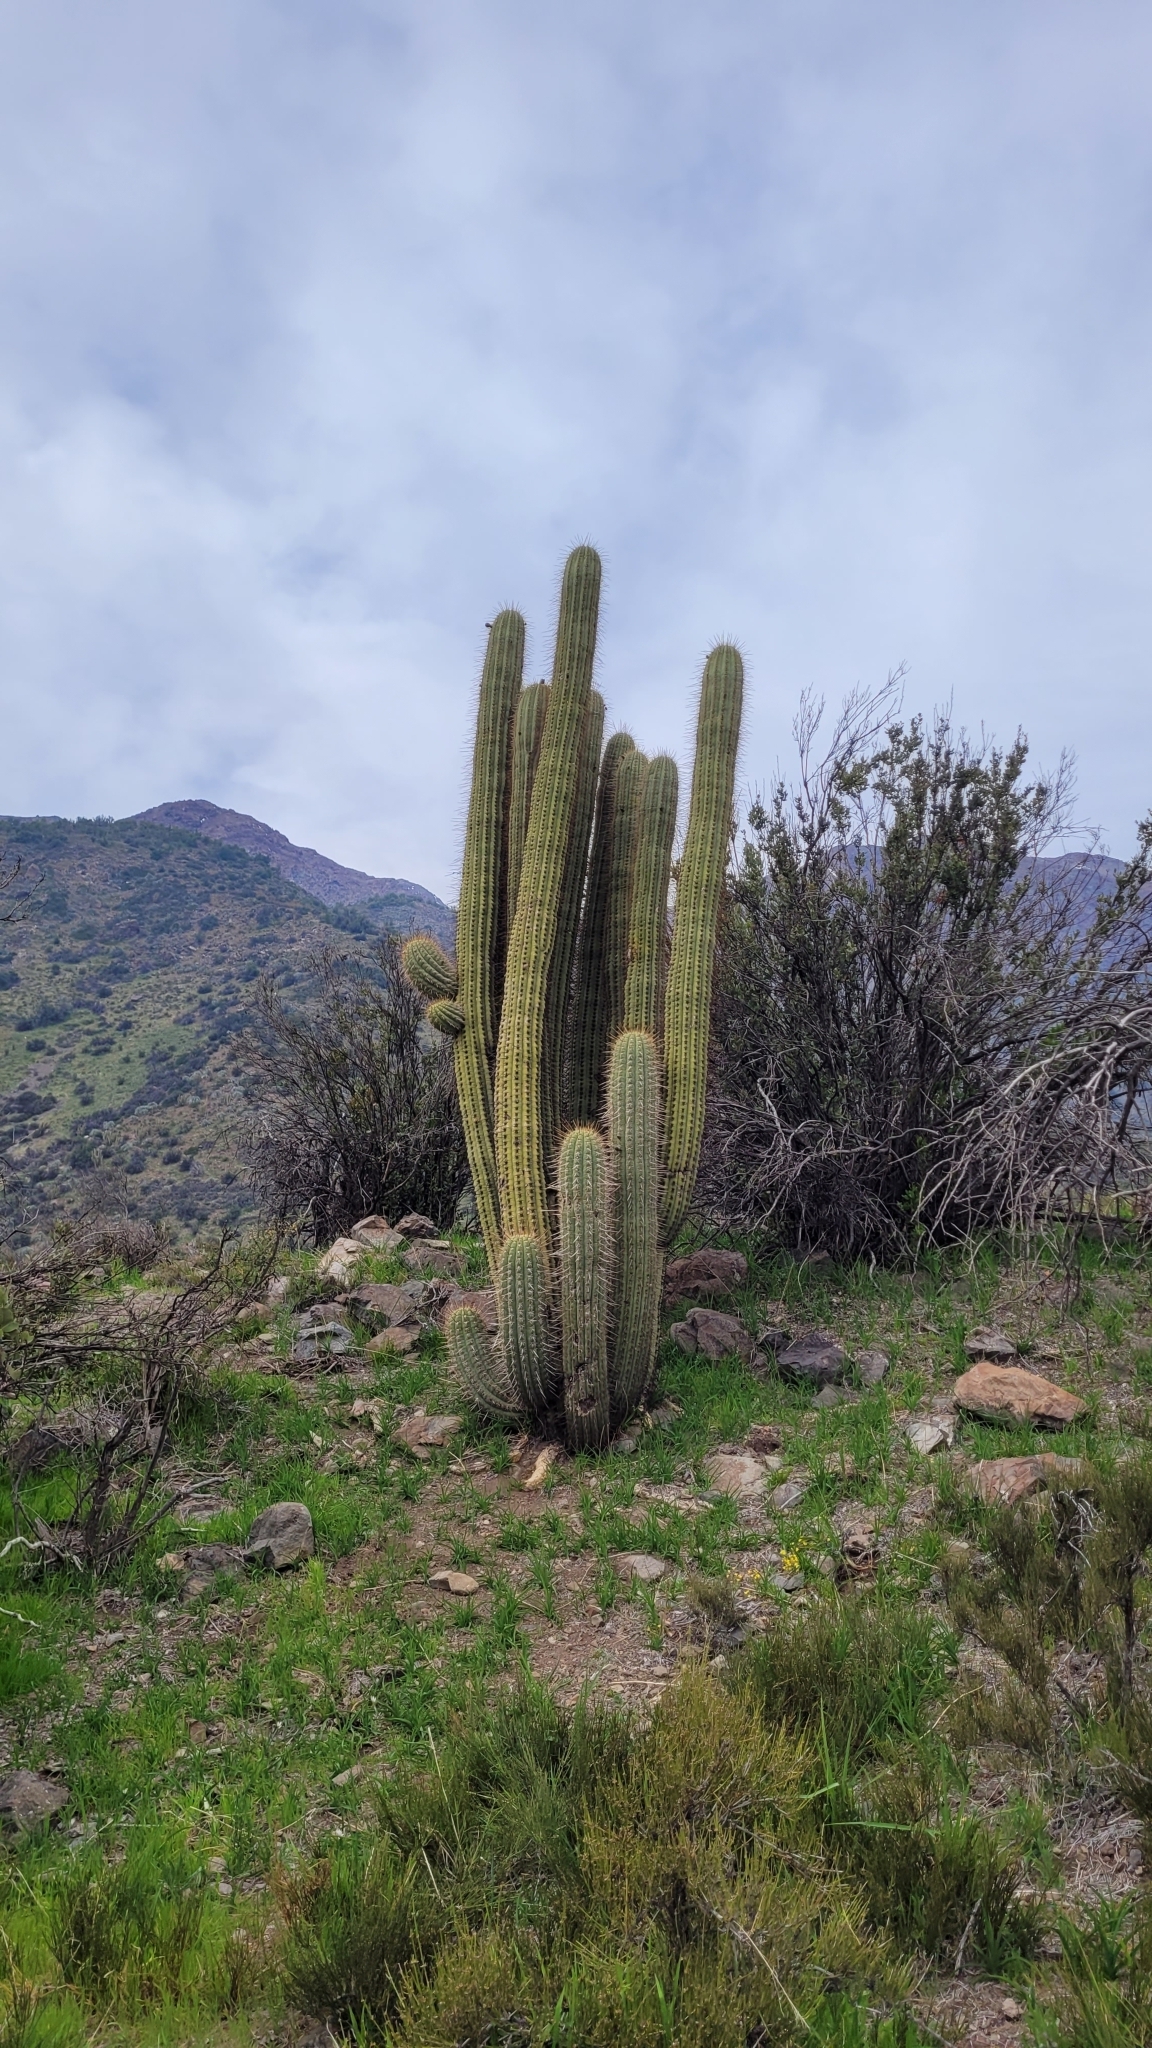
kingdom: Plantae
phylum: Tracheophyta
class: Magnoliopsida
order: Caryophyllales
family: Cactaceae
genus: Leucostele
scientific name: Leucostele chiloensis
